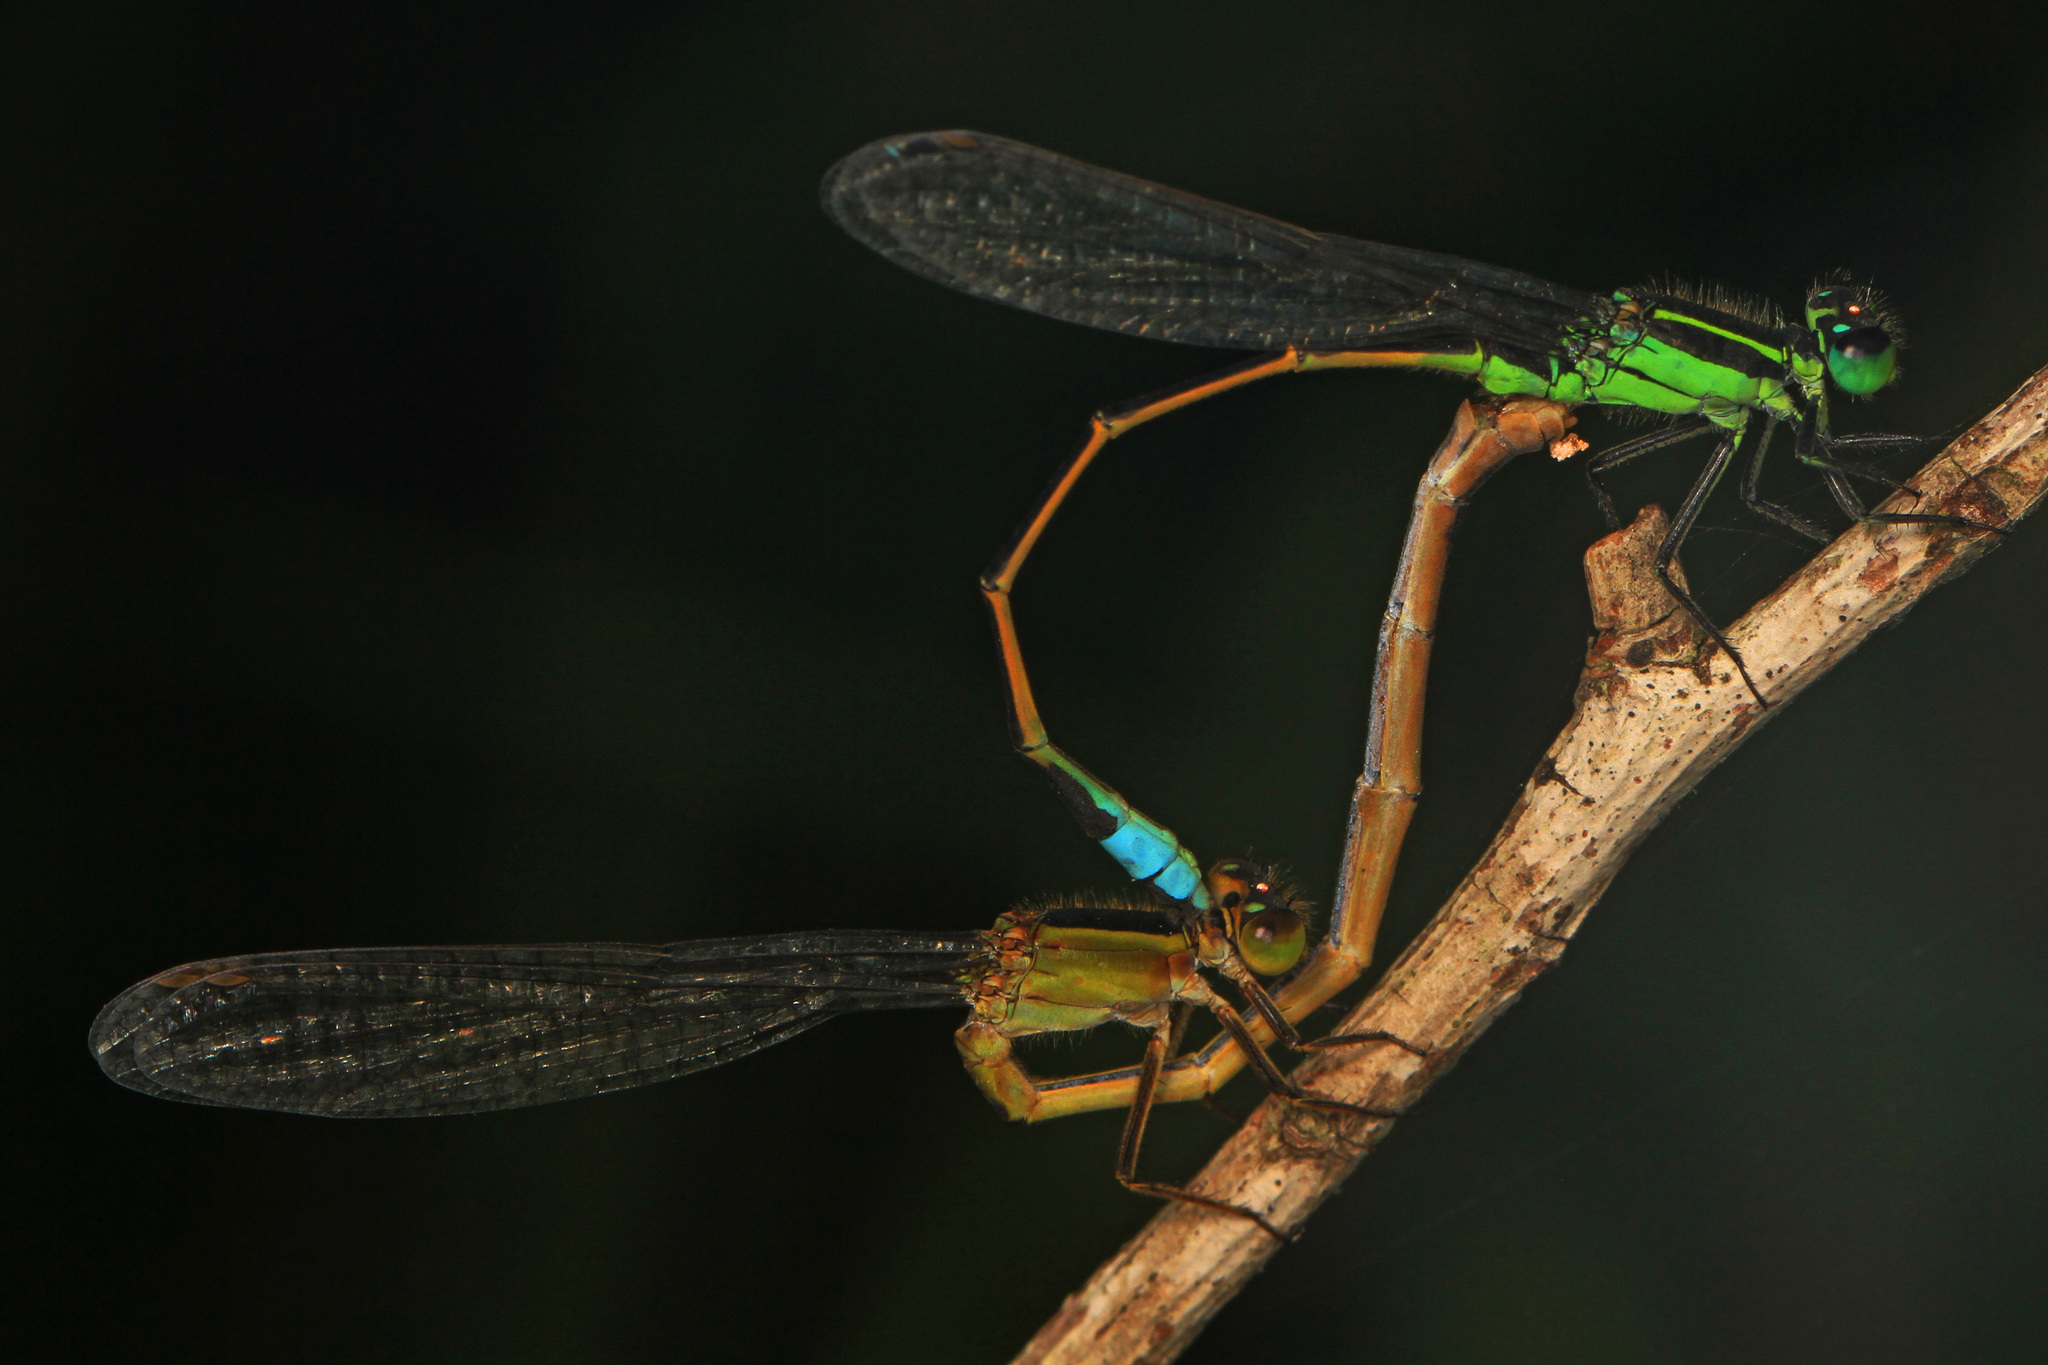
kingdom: Animalia
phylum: Arthropoda
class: Insecta
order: Odonata
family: Coenagrionidae
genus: Ischnura
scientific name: Ischnura ramburii
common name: Rambur's forktail
